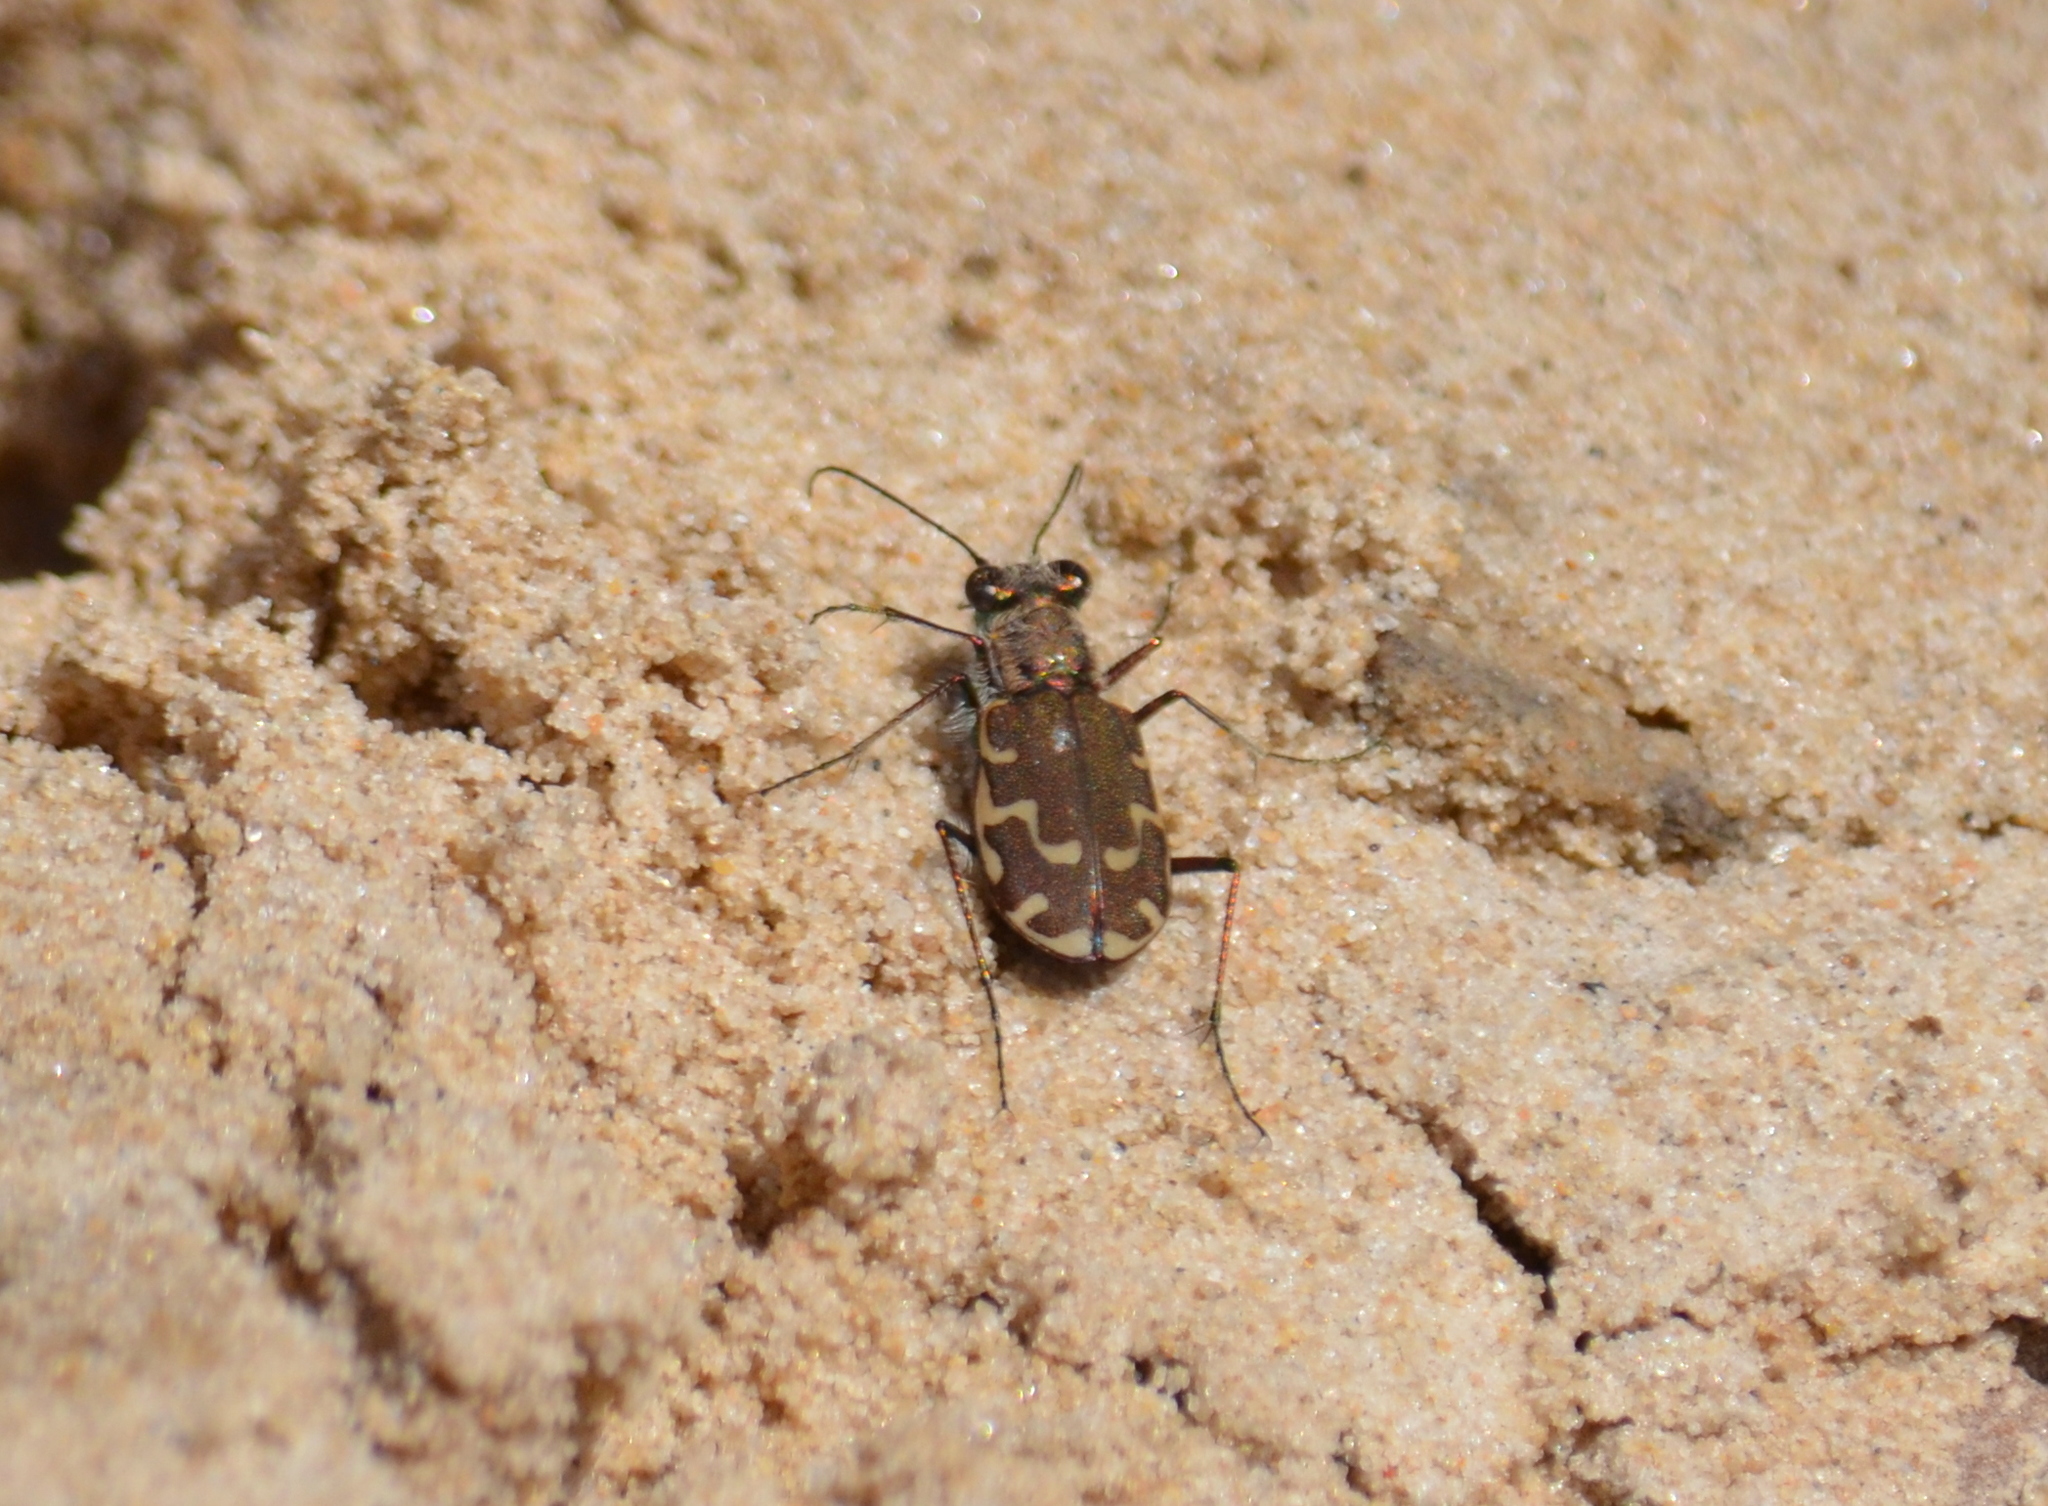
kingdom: Animalia
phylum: Arthropoda
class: Insecta
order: Coleoptera
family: Carabidae
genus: Cicindela
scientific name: Cicindela repanda
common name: Bronzed tiger beetle
